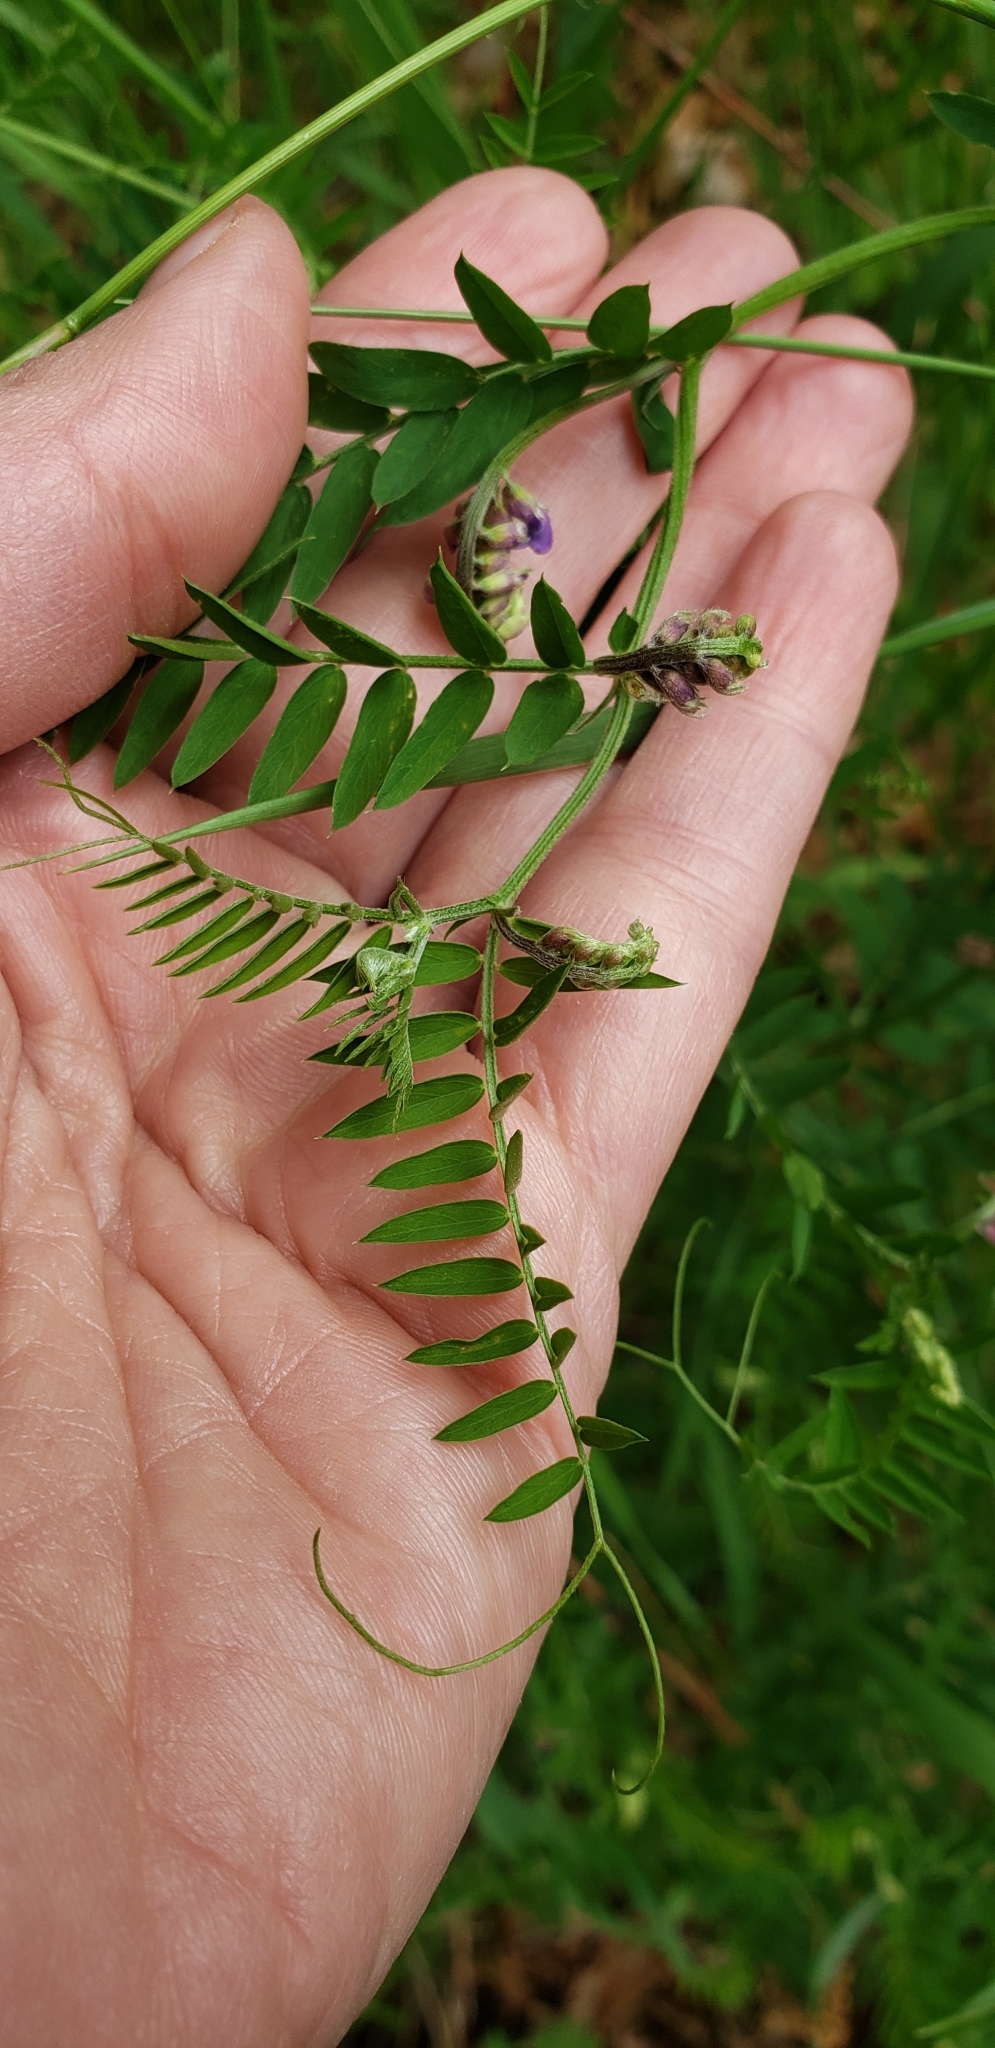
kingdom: Plantae
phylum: Tracheophyta
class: Magnoliopsida
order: Fabales
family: Fabaceae
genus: Vicia
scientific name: Vicia cracca
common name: Bird vetch
